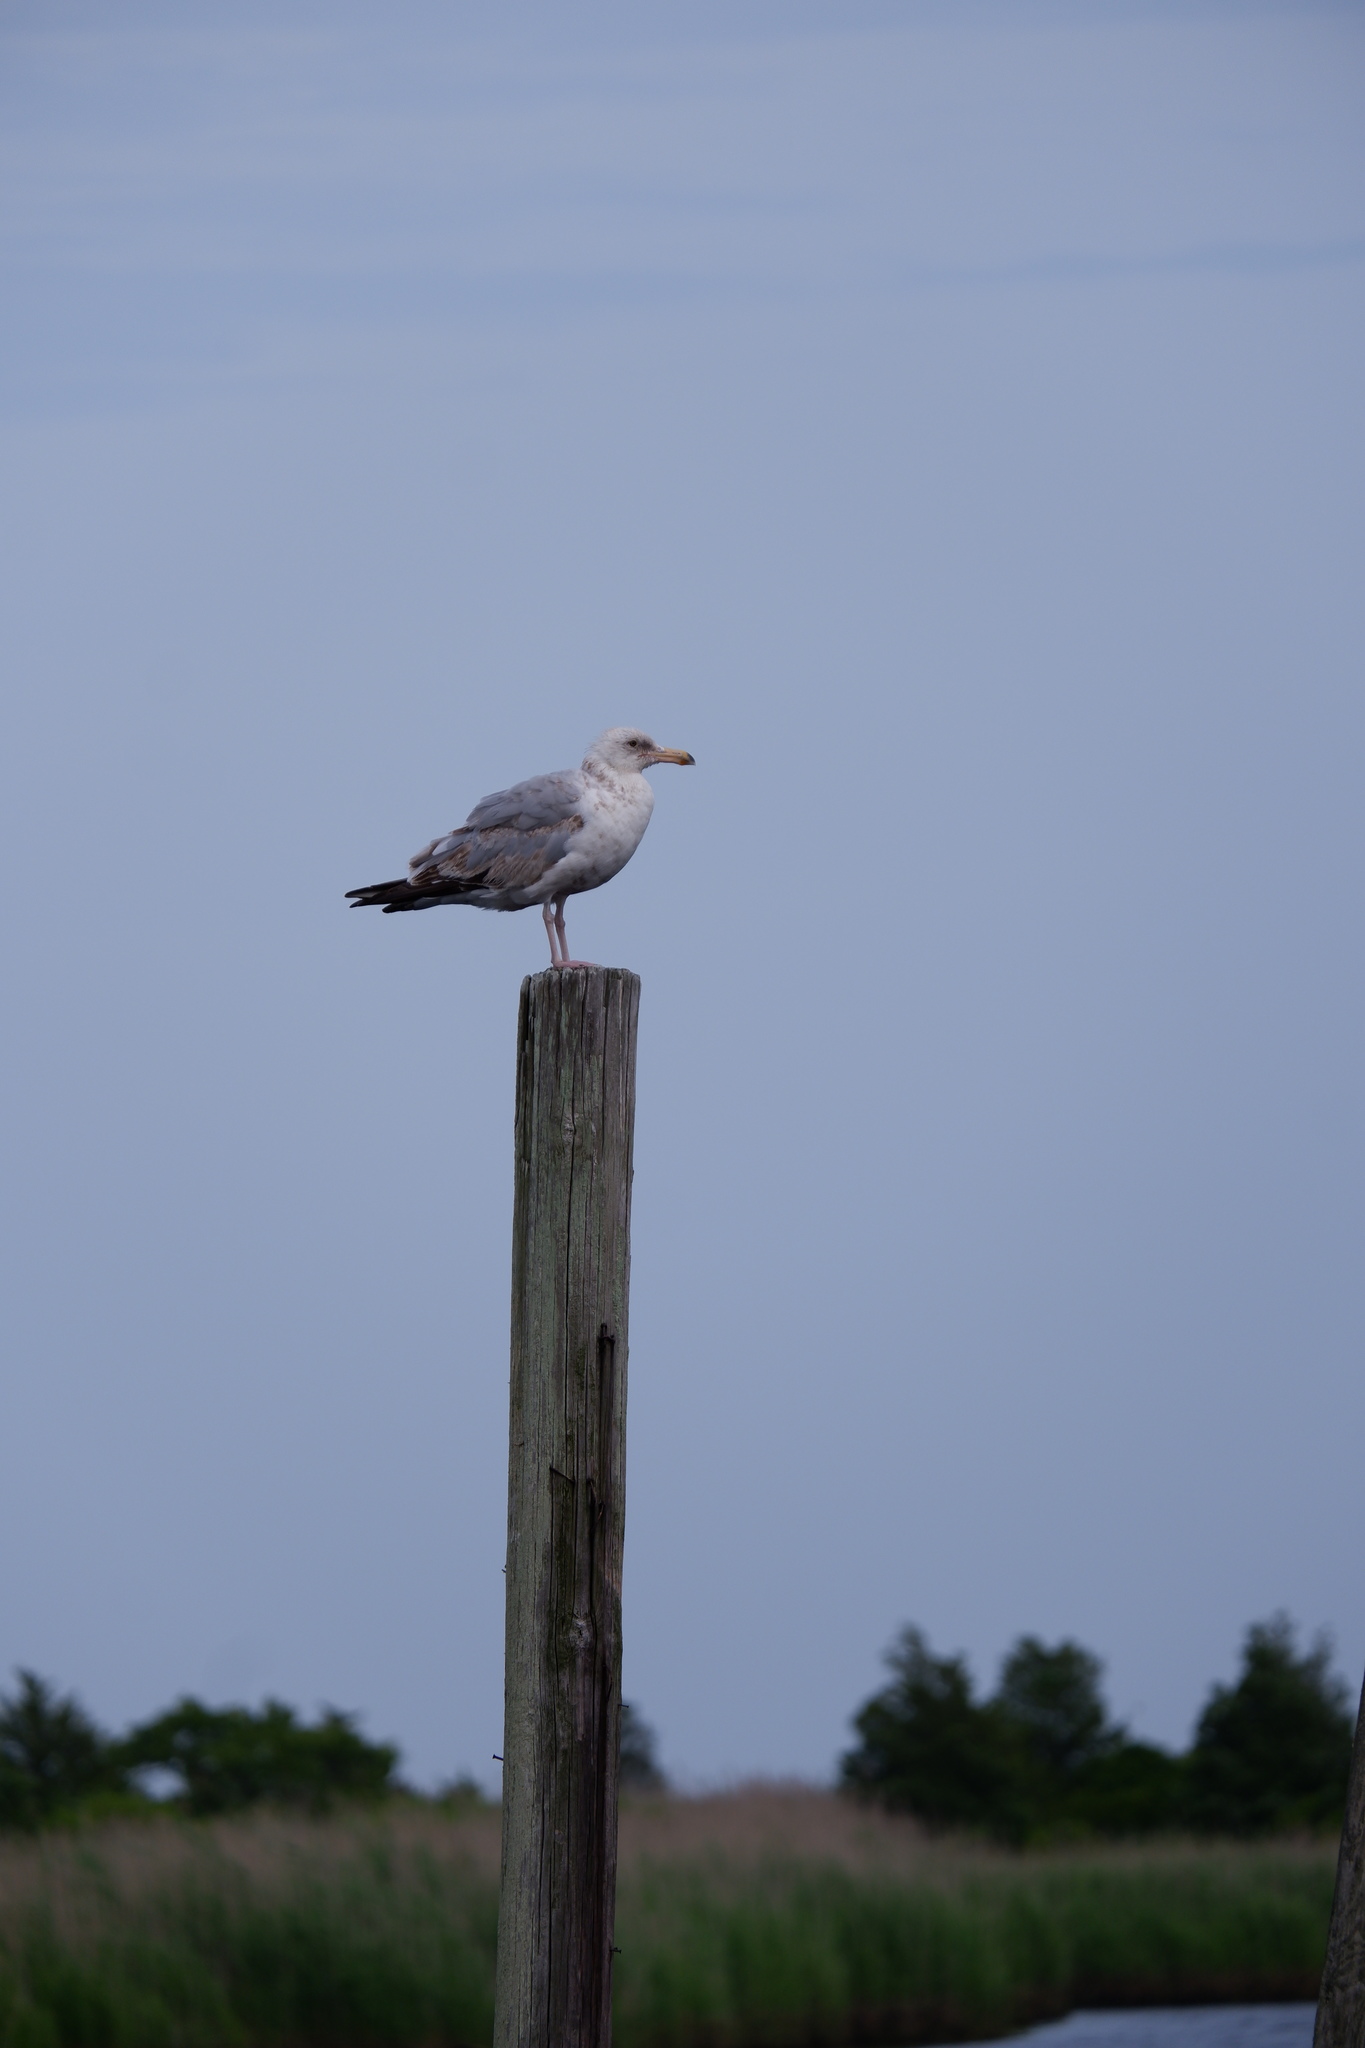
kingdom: Animalia
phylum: Chordata
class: Aves
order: Charadriiformes
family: Laridae
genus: Larus
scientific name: Larus smithsonianus
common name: American herring gull
